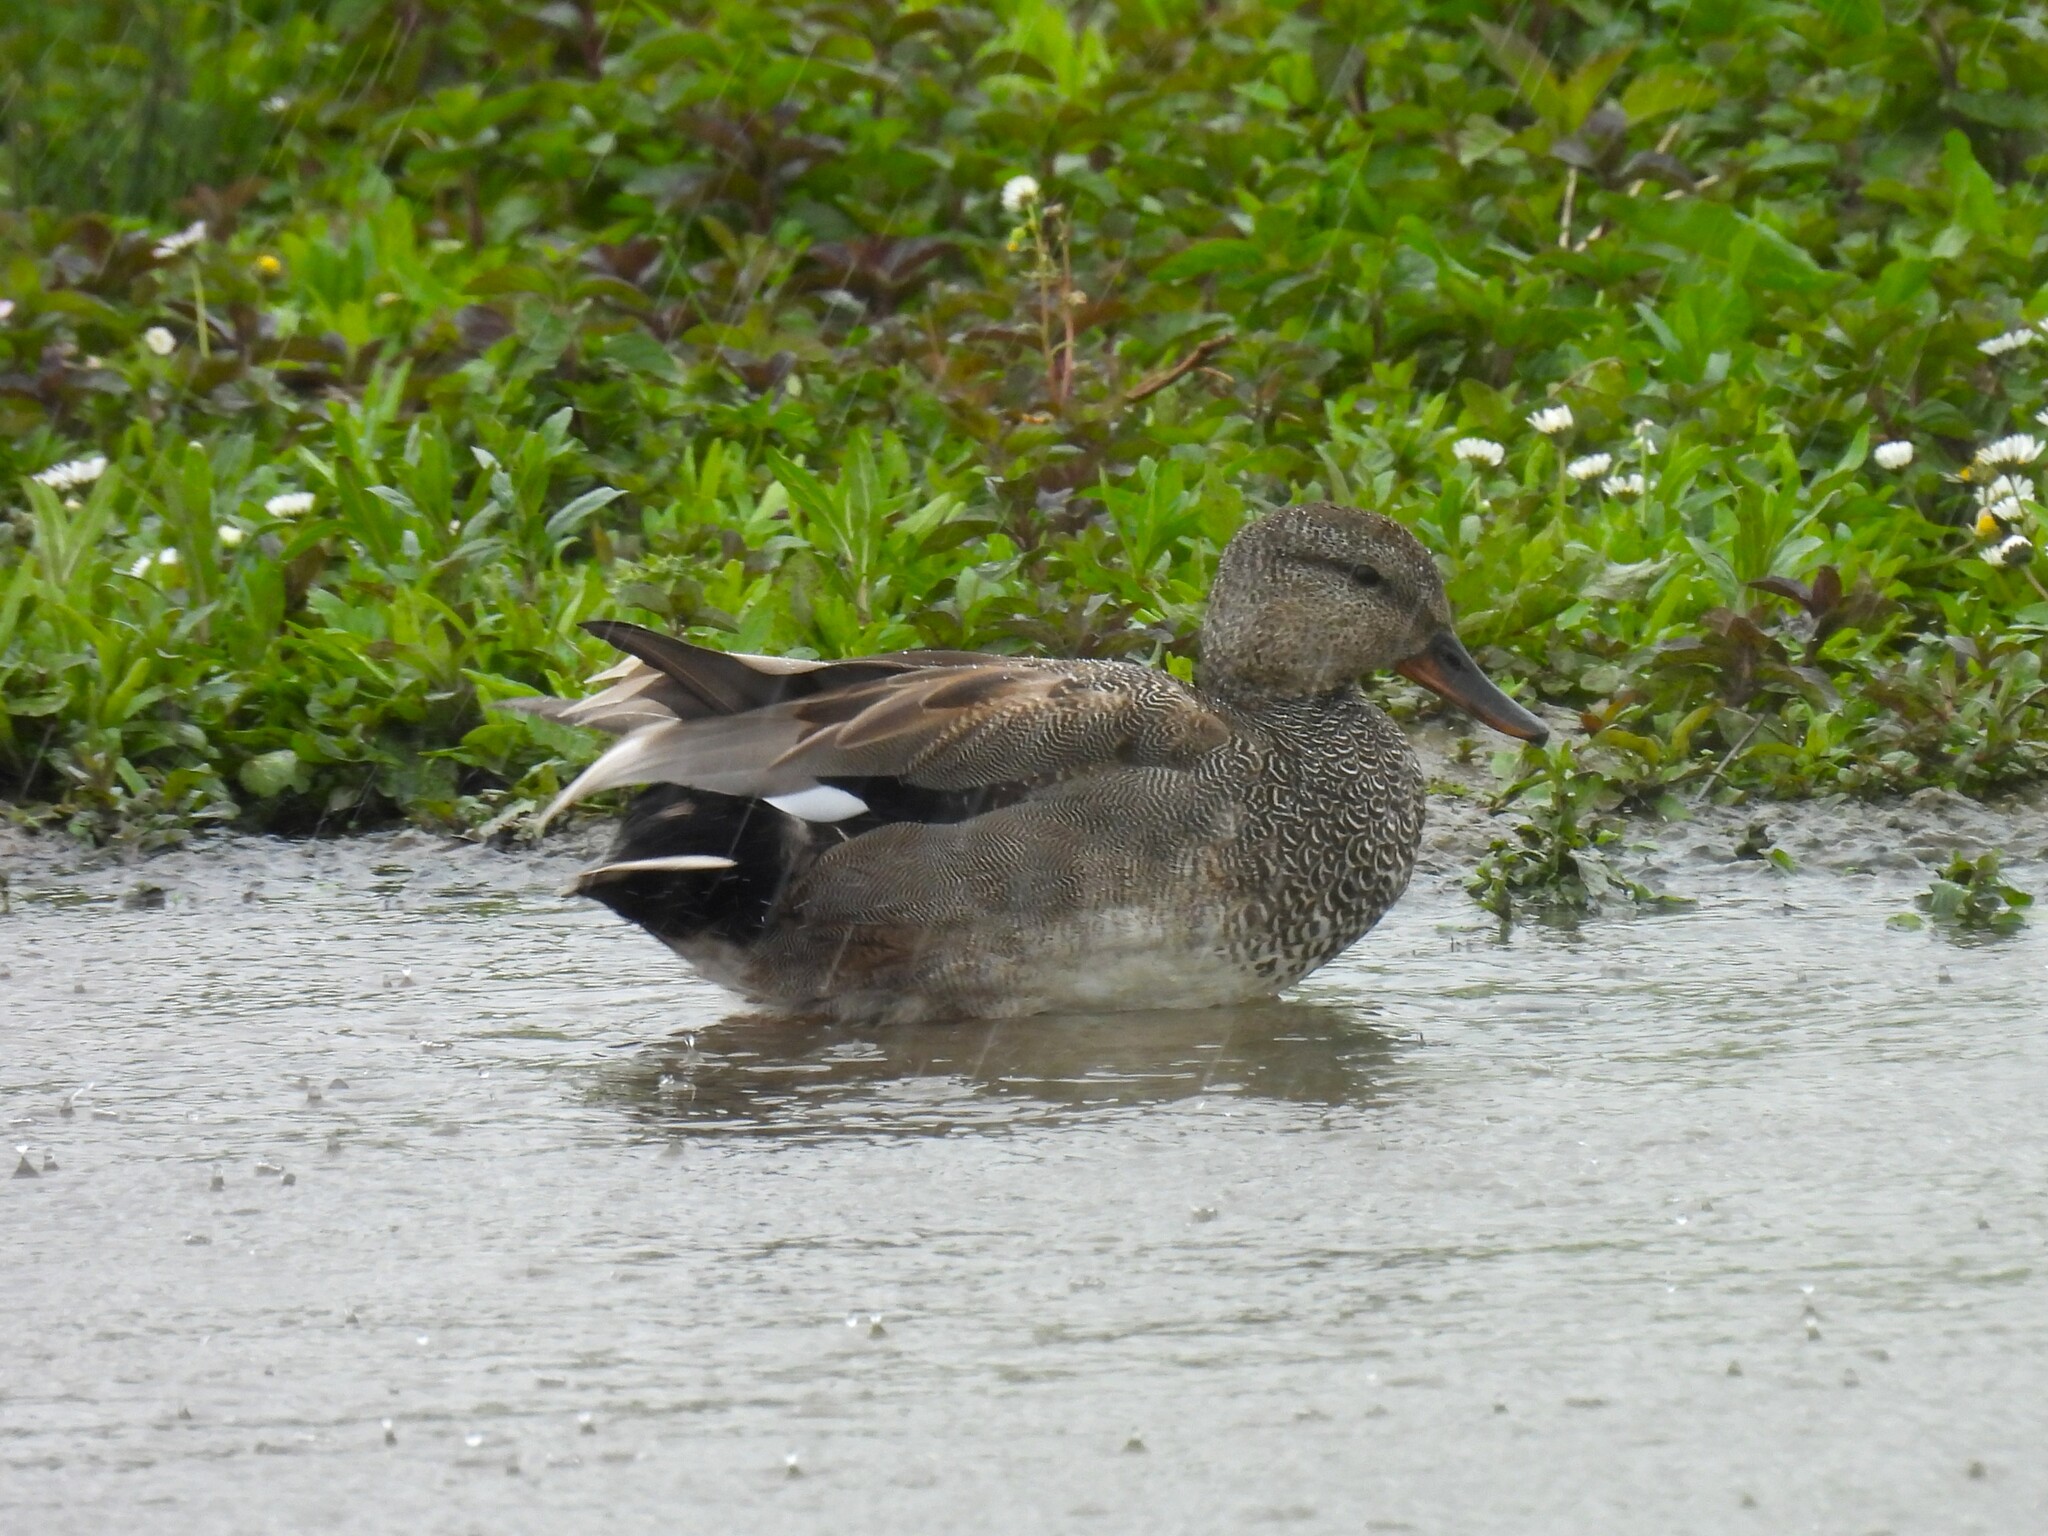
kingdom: Animalia
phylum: Chordata
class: Aves
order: Anseriformes
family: Anatidae
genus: Mareca
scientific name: Mareca strepera
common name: Gadwall
